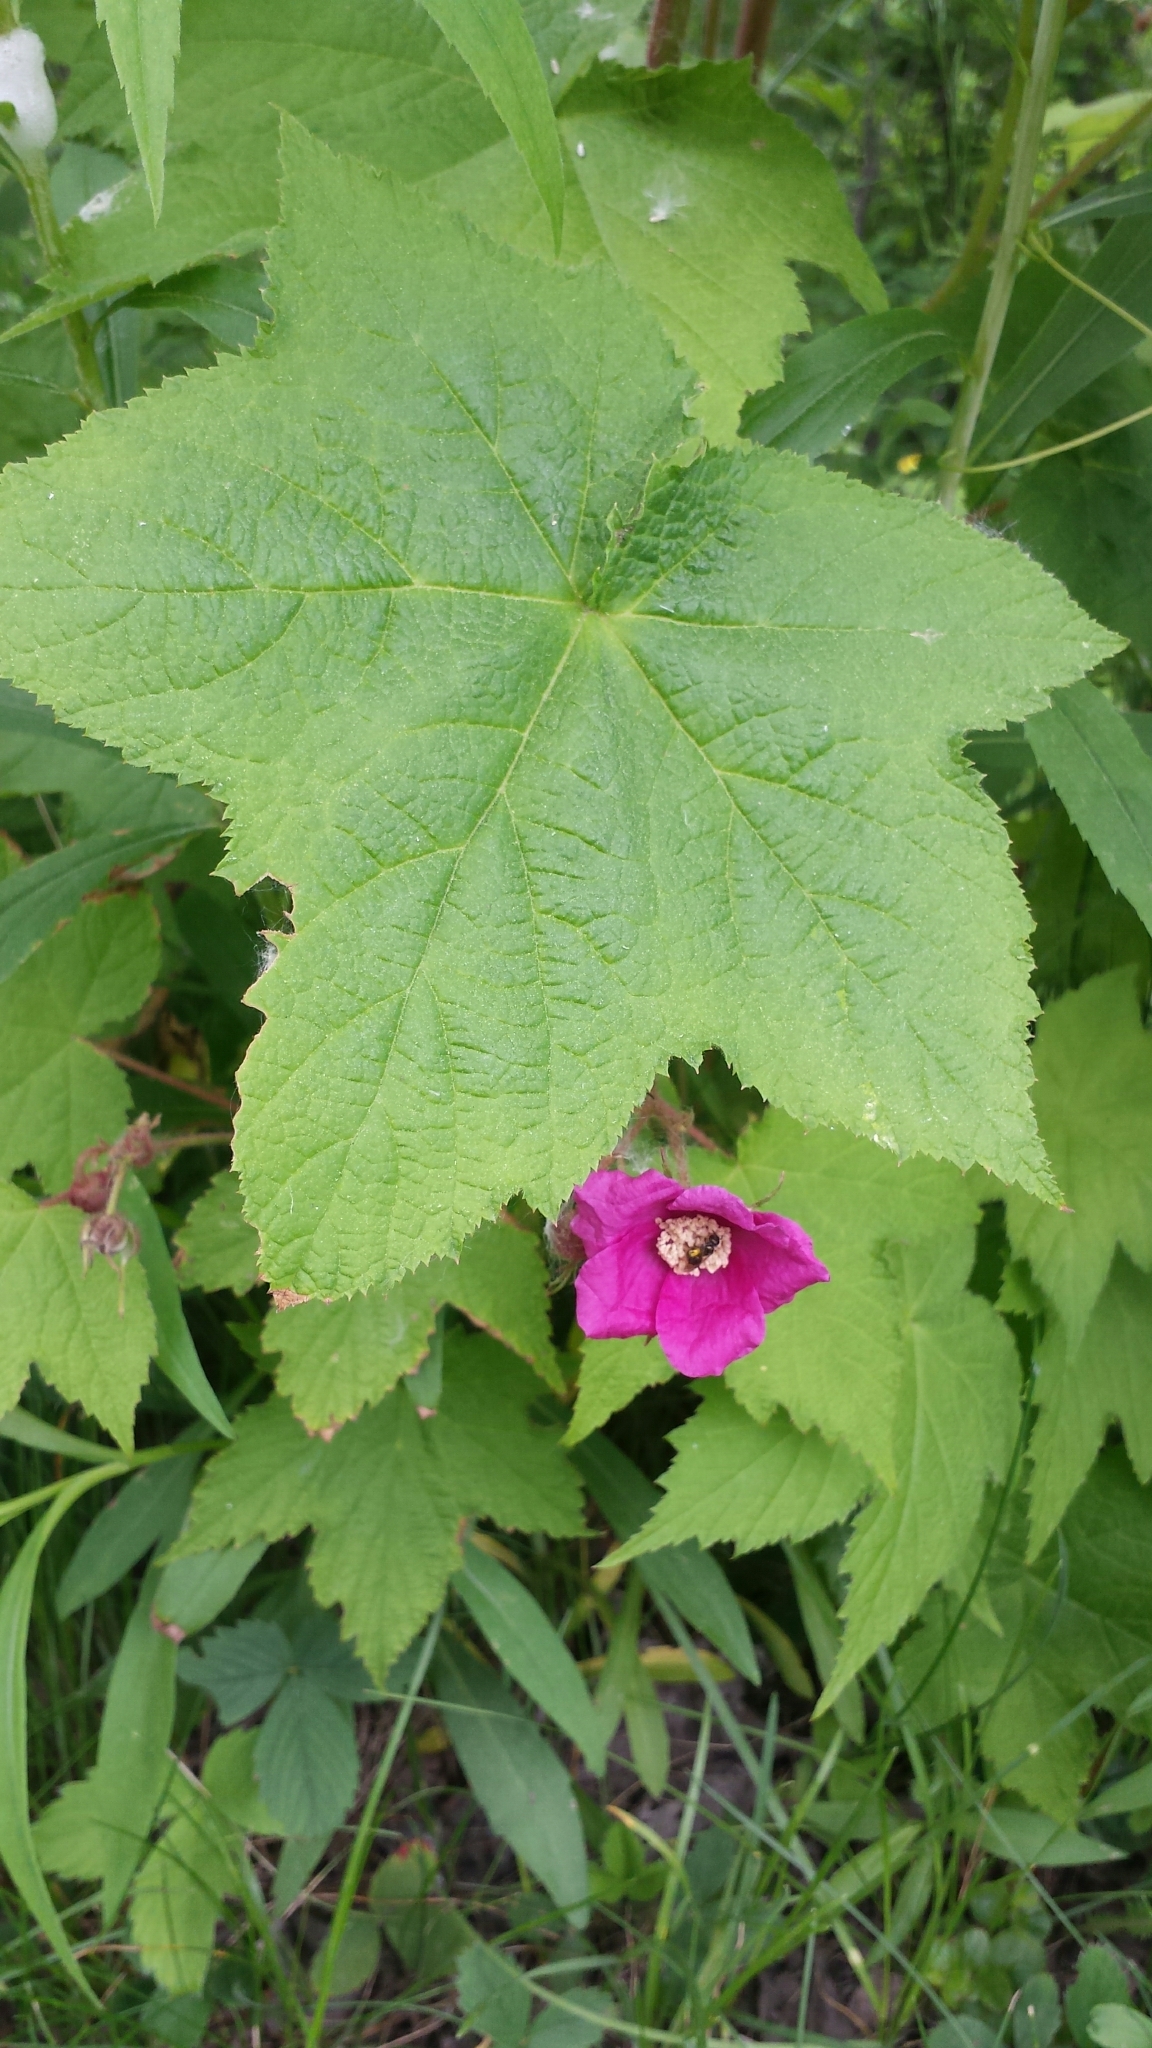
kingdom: Plantae
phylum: Tracheophyta
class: Magnoliopsida
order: Rosales
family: Rosaceae
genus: Rubus
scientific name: Rubus odoratus
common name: Purple-flowered raspberry
